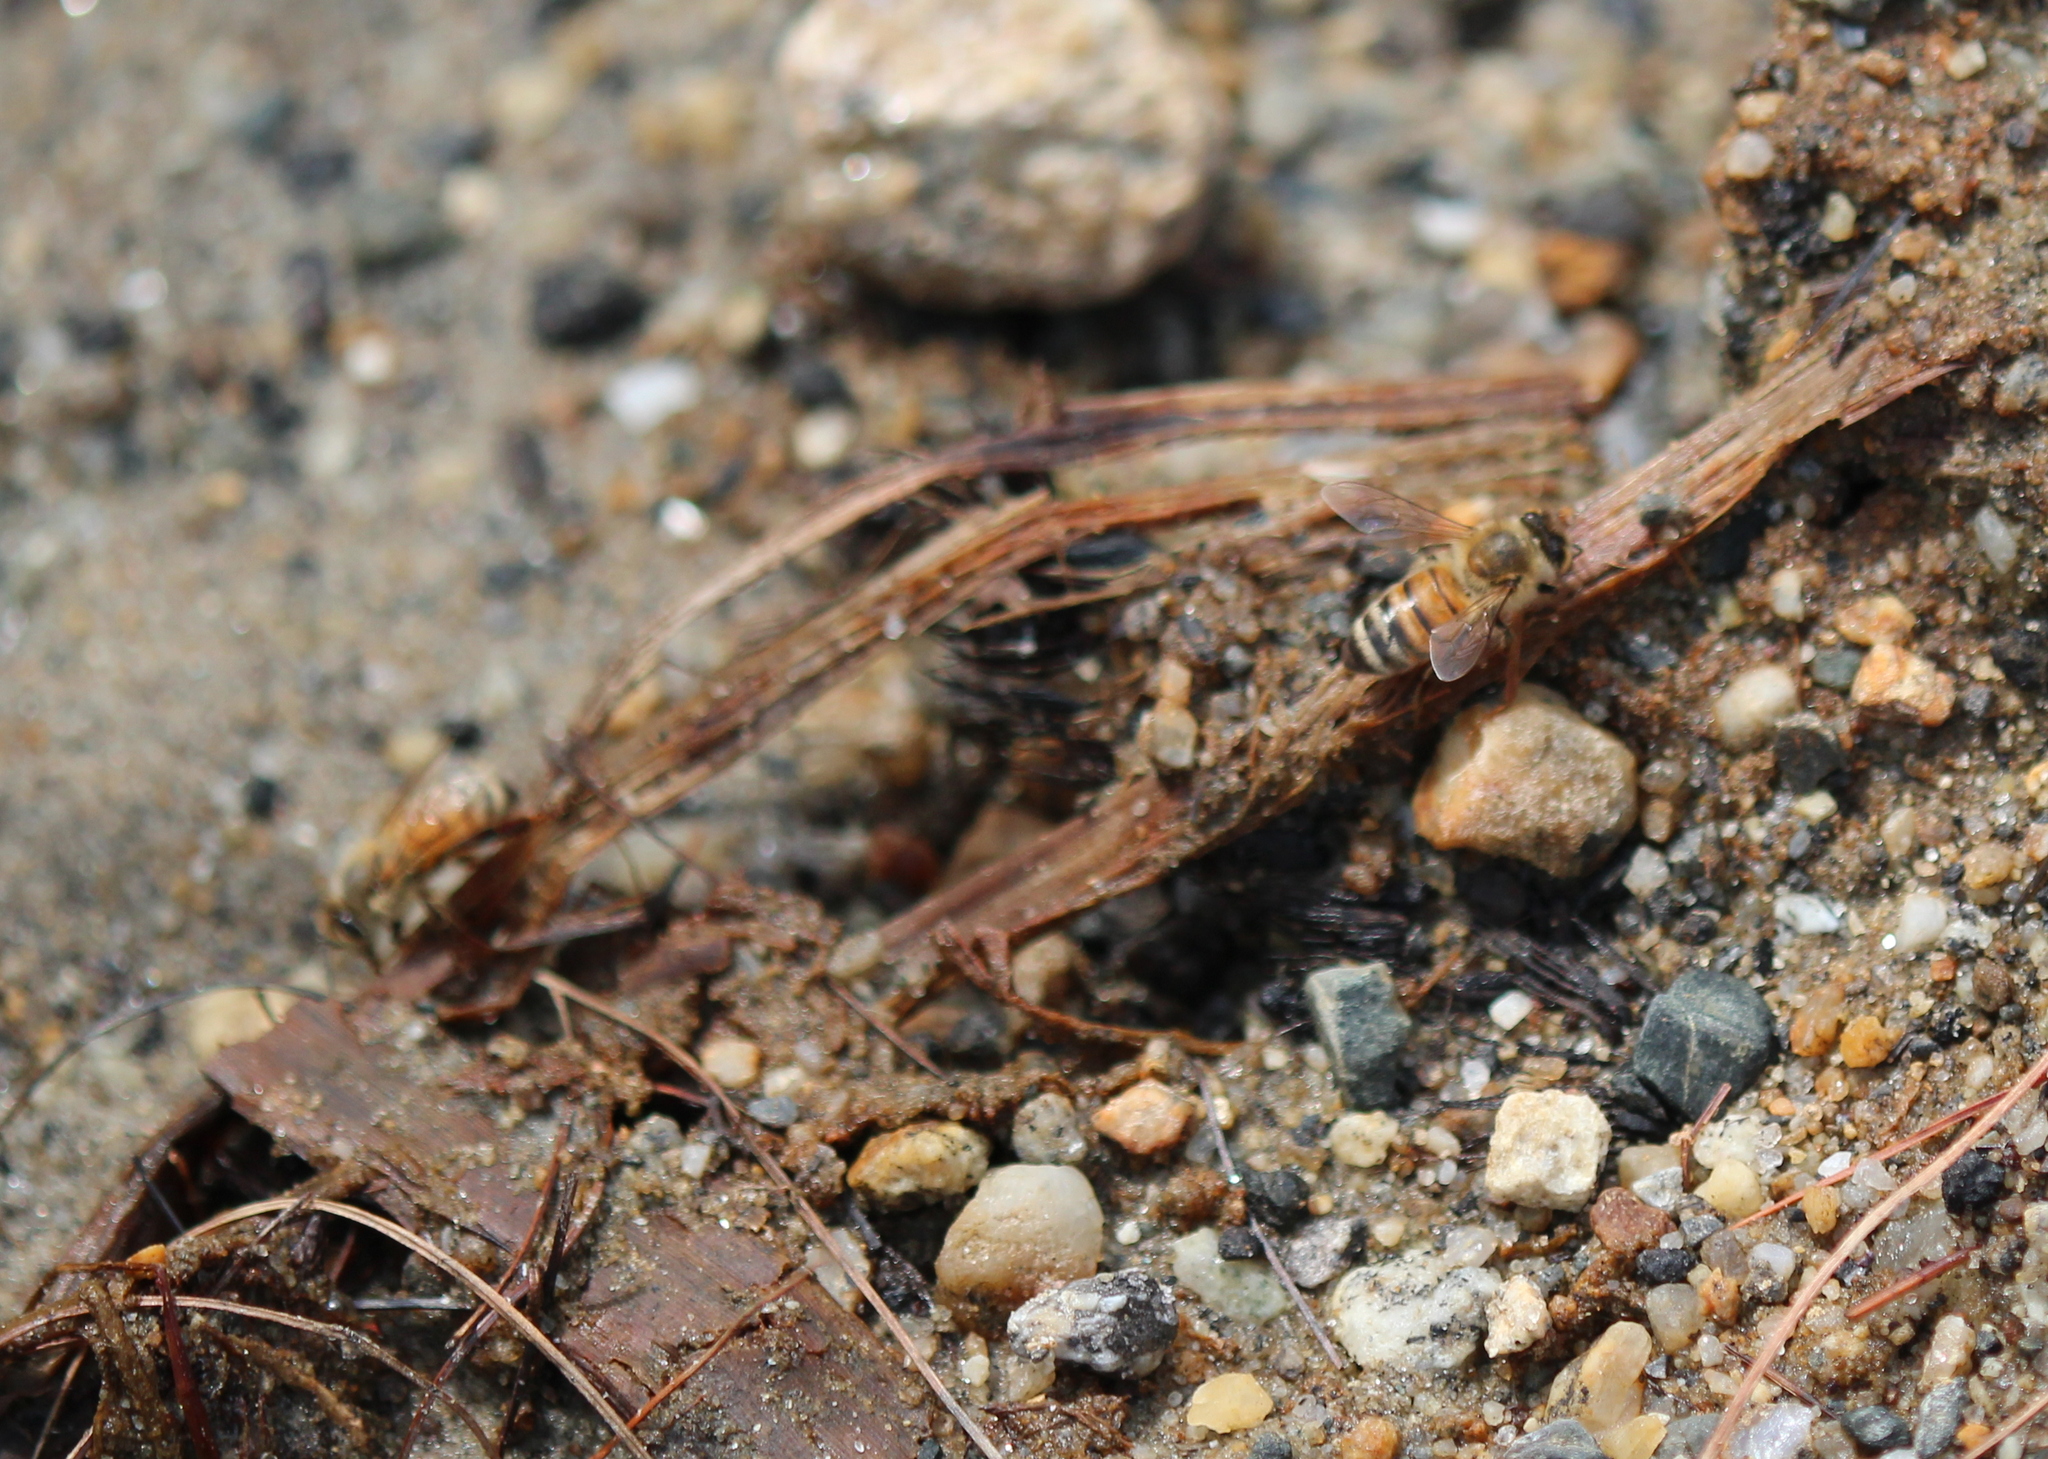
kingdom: Animalia
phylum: Arthropoda
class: Insecta
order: Hymenoptera
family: Apidae
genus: Apis
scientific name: Apis mellifera
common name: Honey bee
